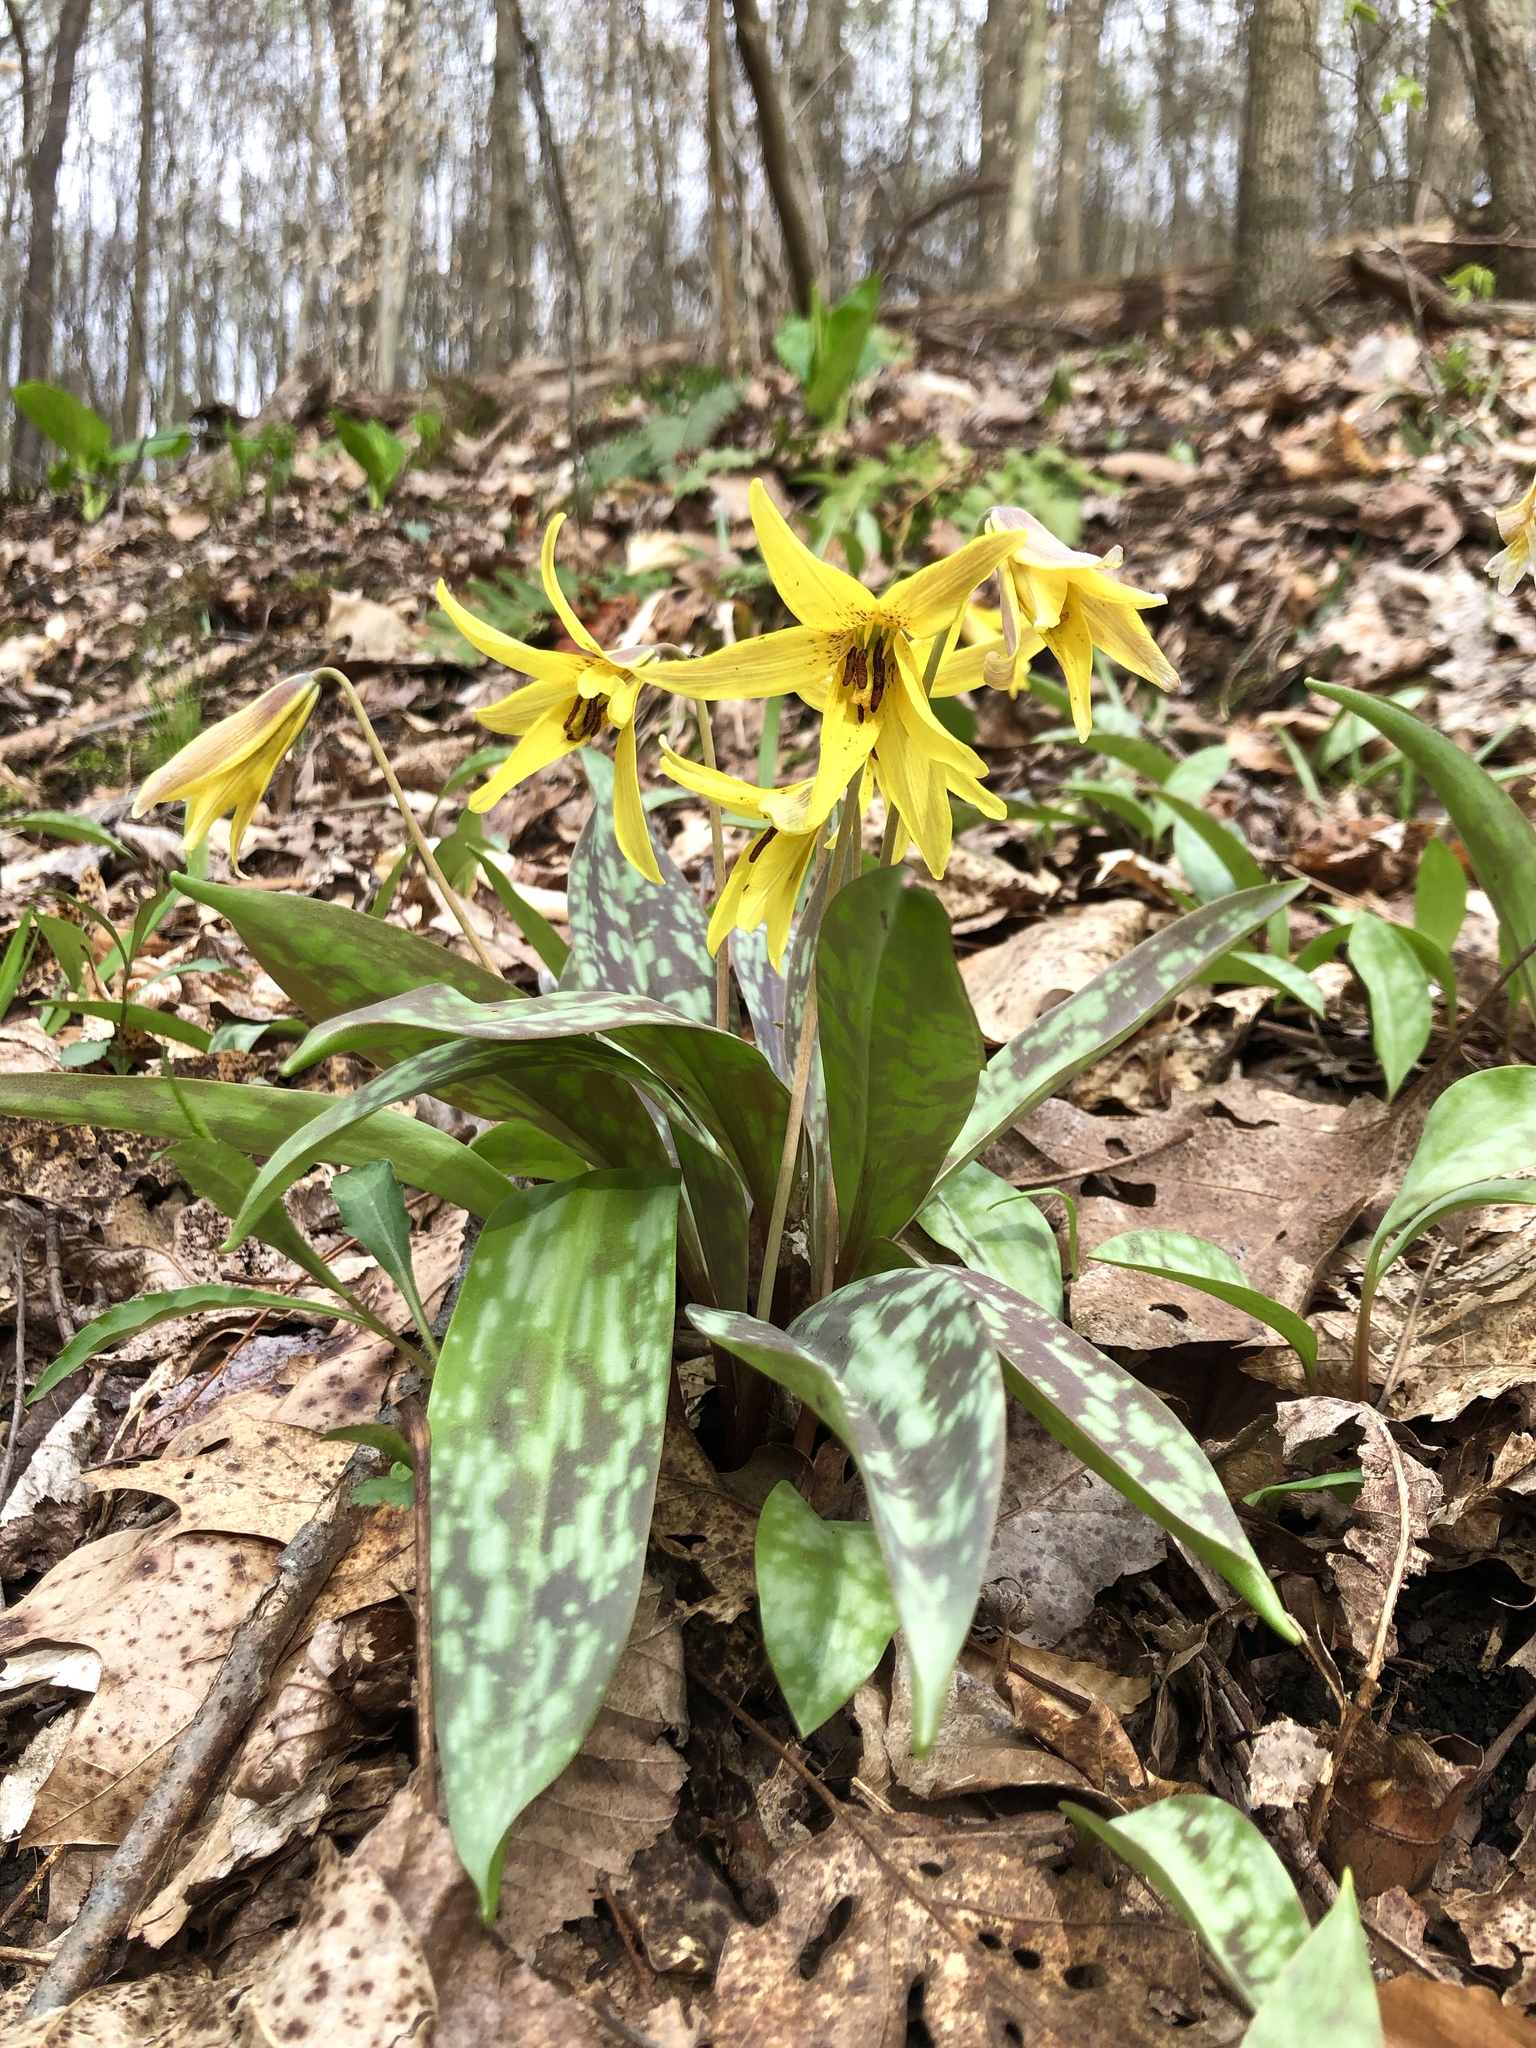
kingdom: Plantae
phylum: Tracheophyta
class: Liliopsida
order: Liliales
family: Liliaceae
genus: Erythronium
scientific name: Erythronium americanum
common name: Yellow adder's-tongue
